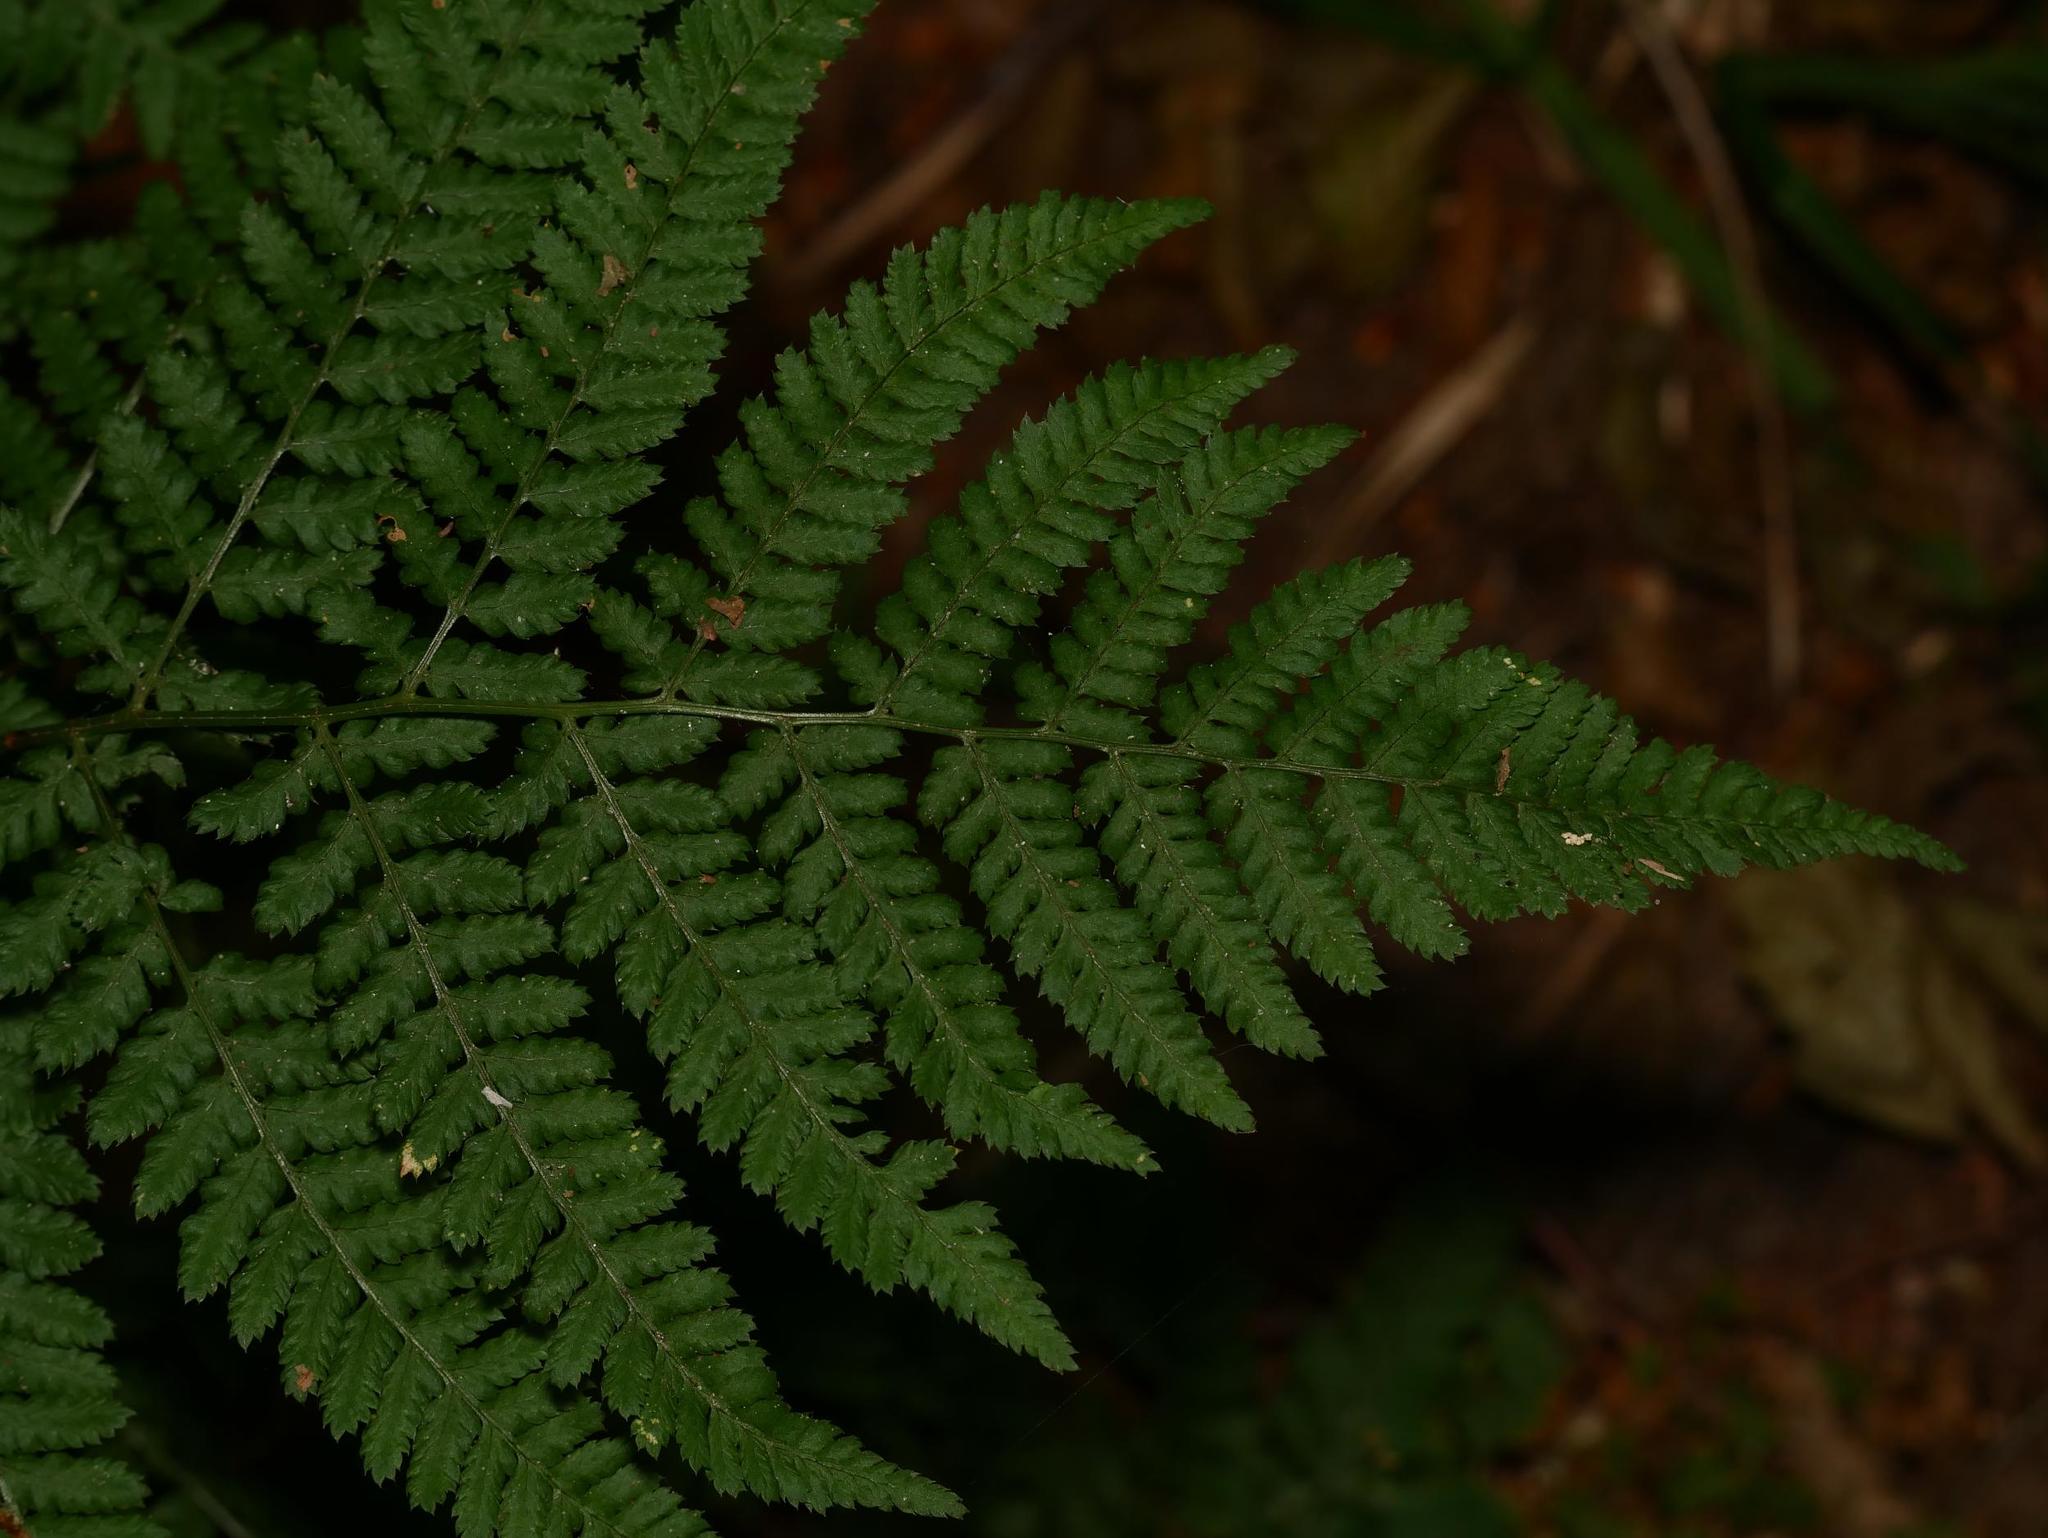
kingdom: Plantae
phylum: Tracheophyta
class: Polypodiopsida
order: Polypodiales
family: Dryopteridaceae
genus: Dryopteris
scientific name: Dryopteris dilatata
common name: Broad buckler-fern
